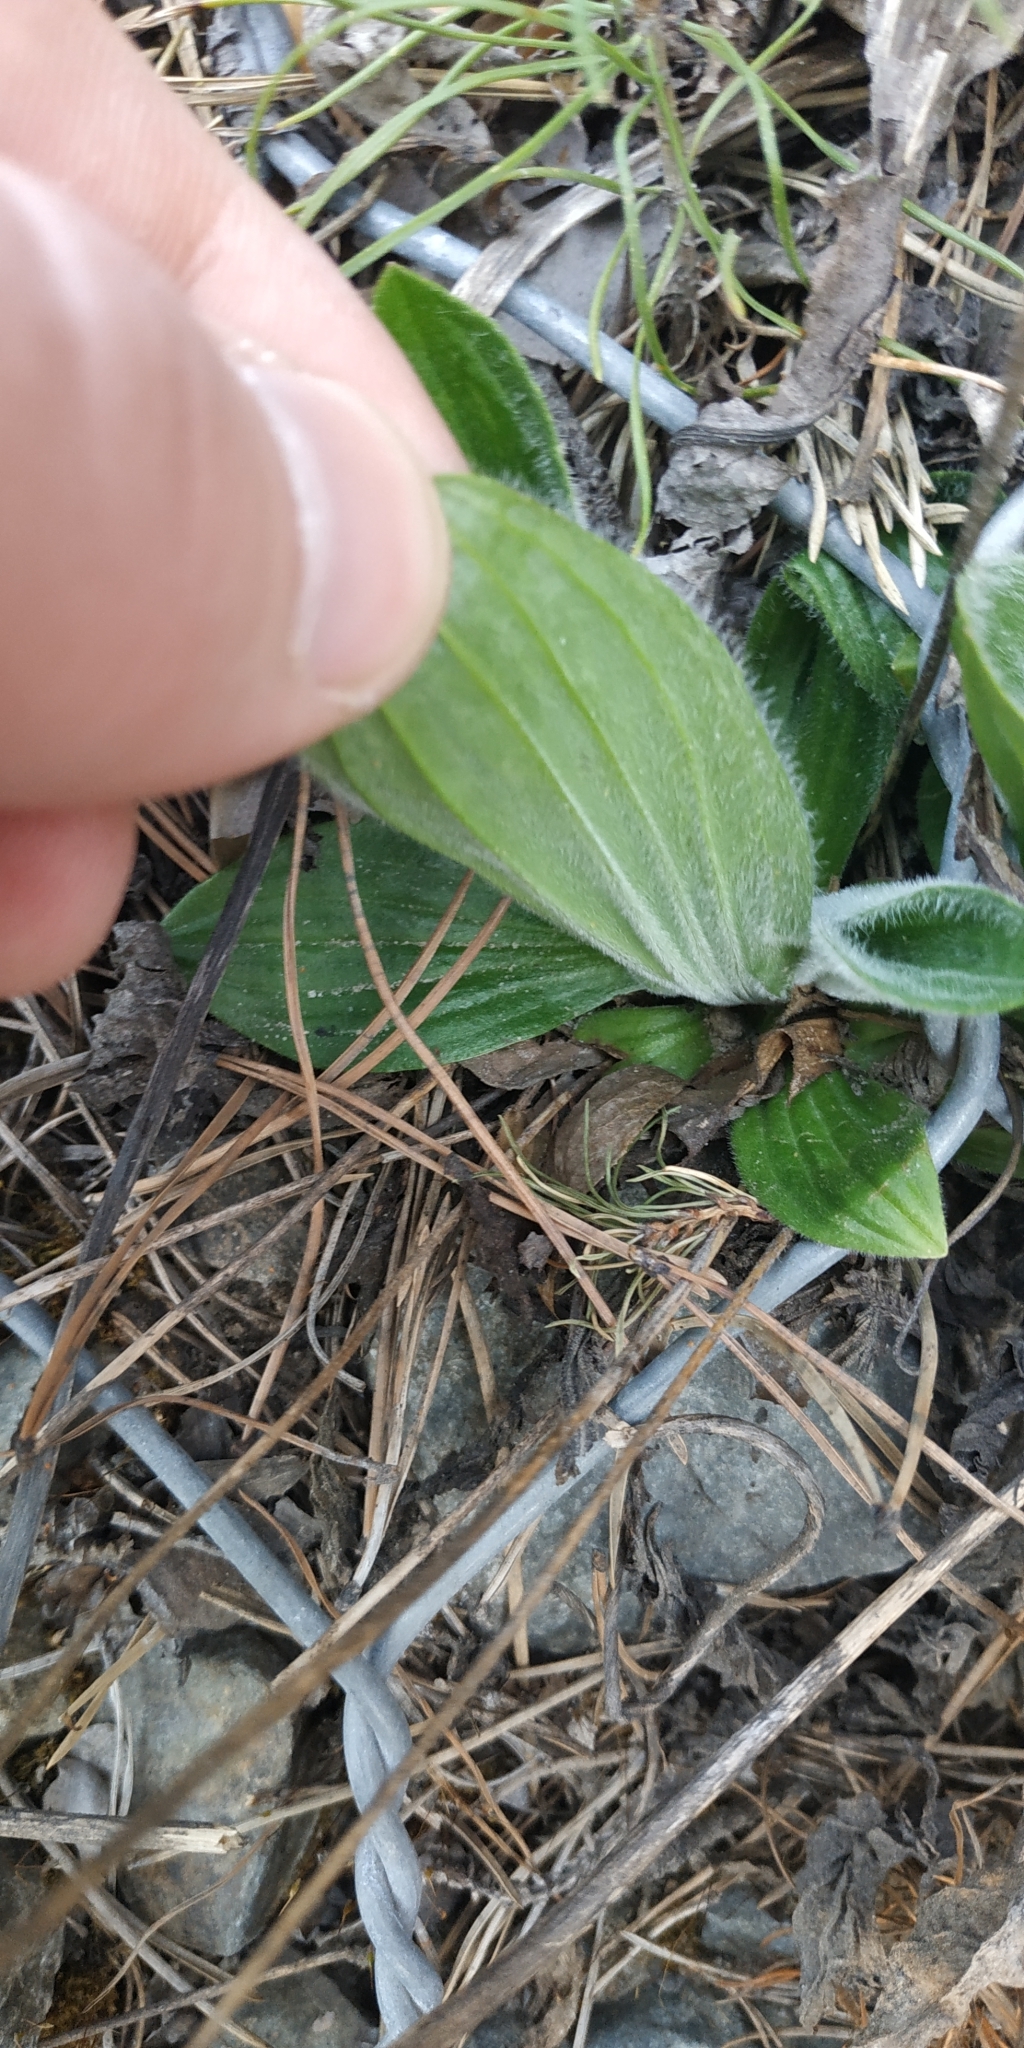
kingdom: Plantae
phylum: Tracheophyta
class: Magnoliopsida
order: Lamiales
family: Plantaginaceae
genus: Plantago
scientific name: Plantago media
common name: Hoary plantain
